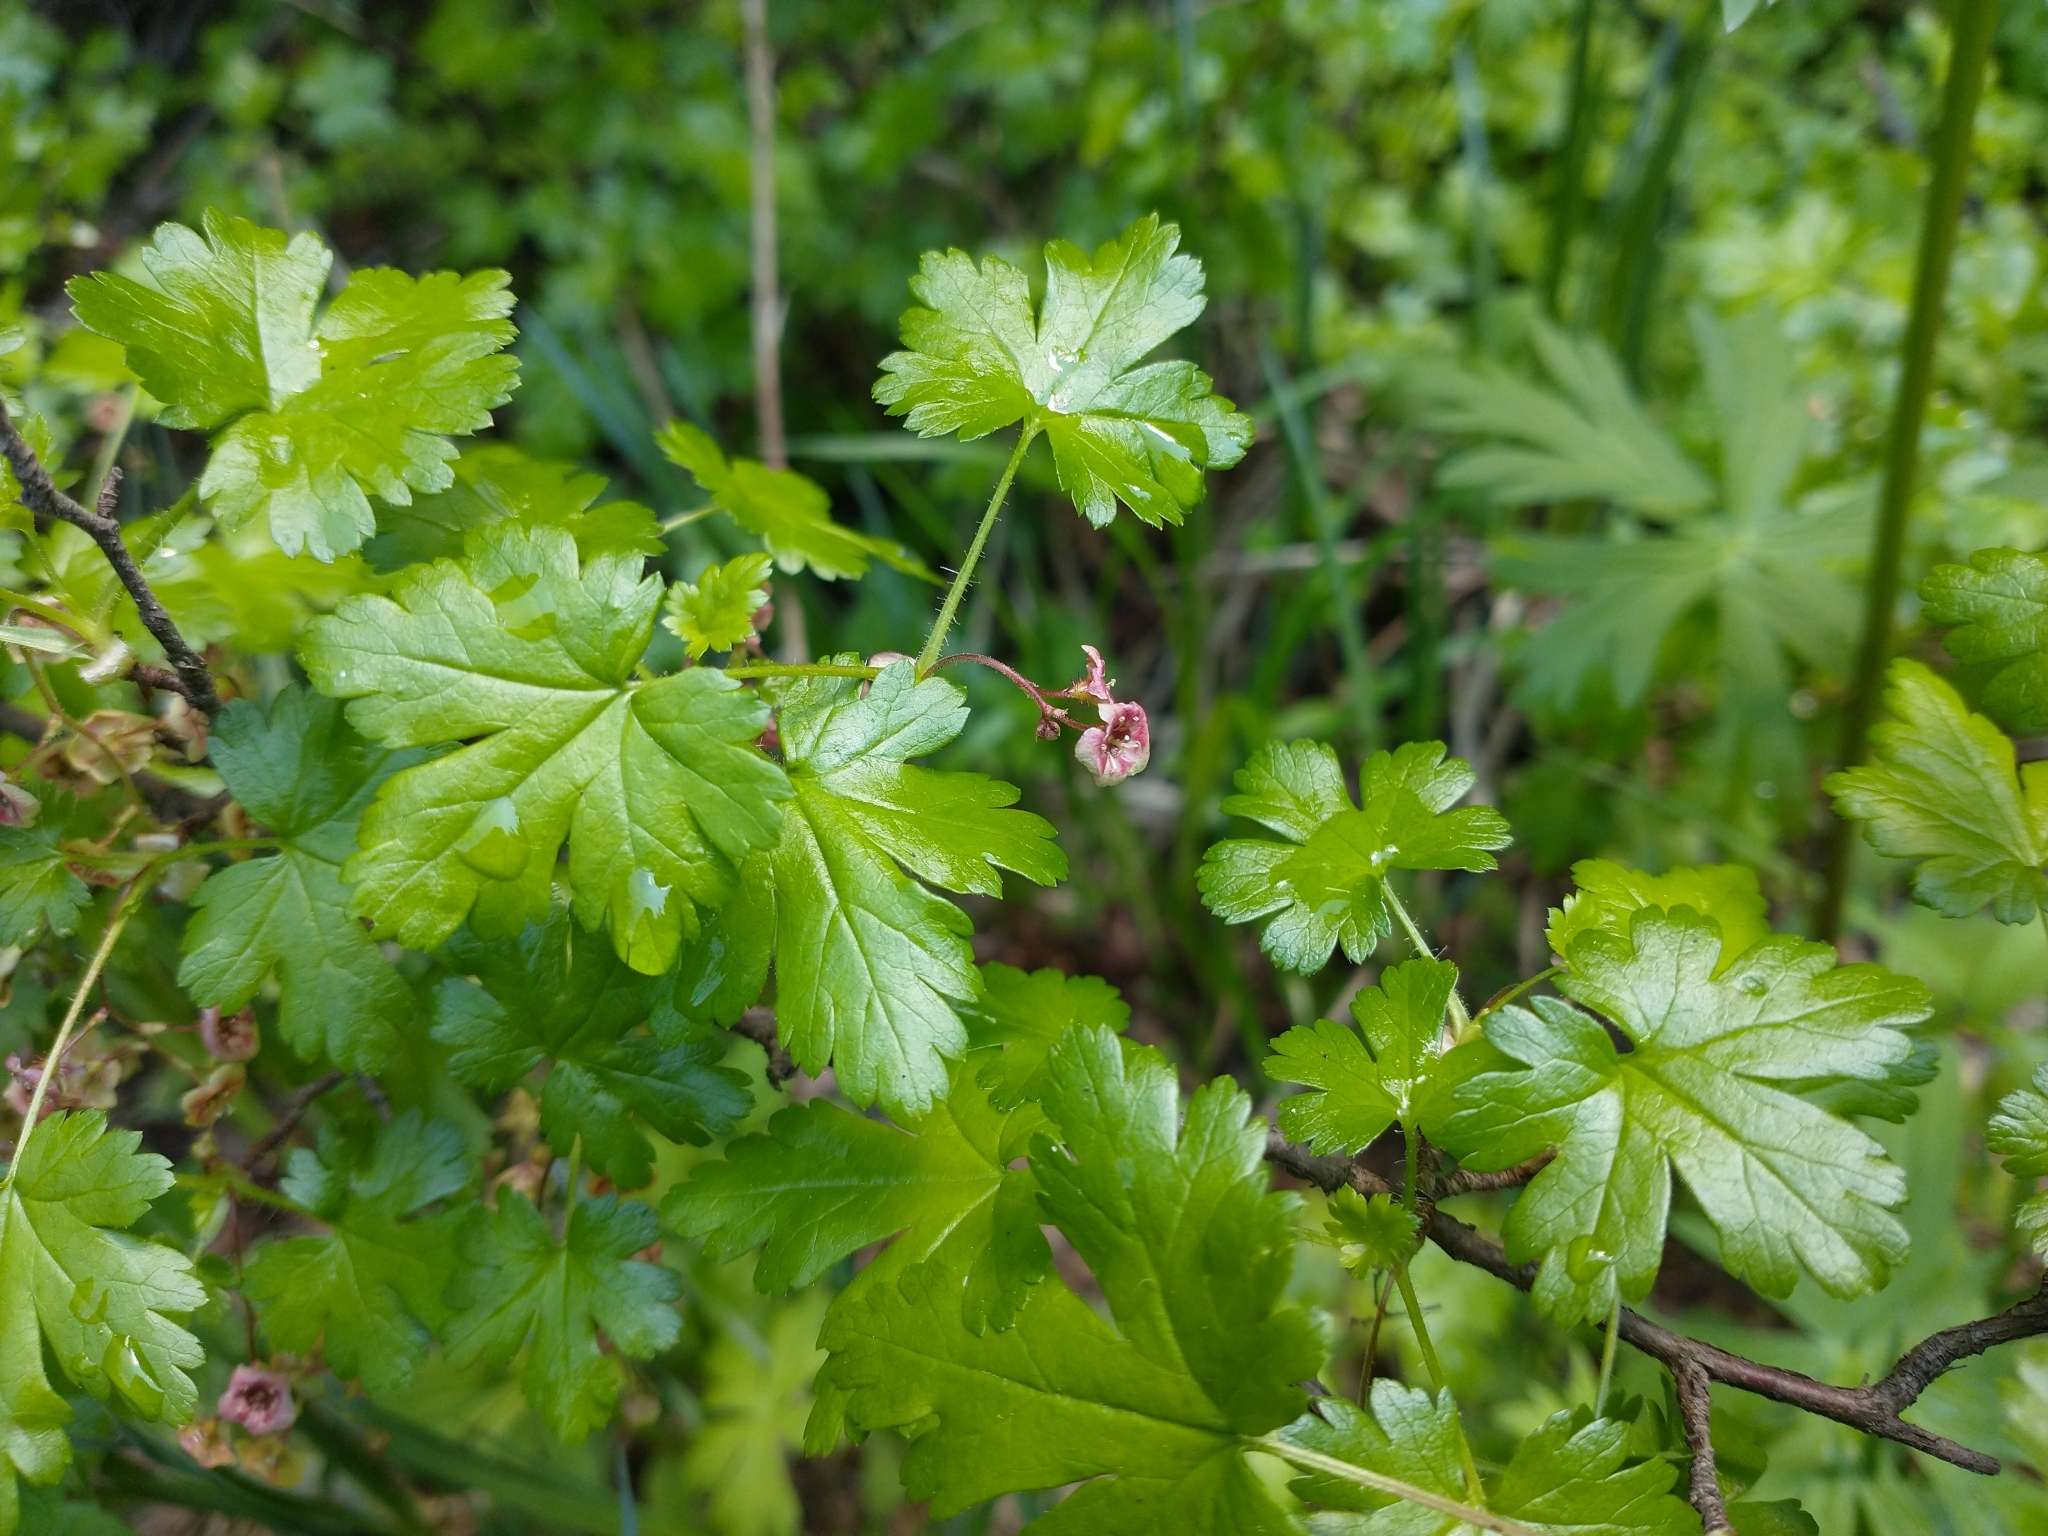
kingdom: Plantae
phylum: Tracheophyta
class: Magnoliopsida
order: Saxifragales
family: Grossulariaceae
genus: Ribes
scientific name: Ribes lacustre
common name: Black gooseberry
